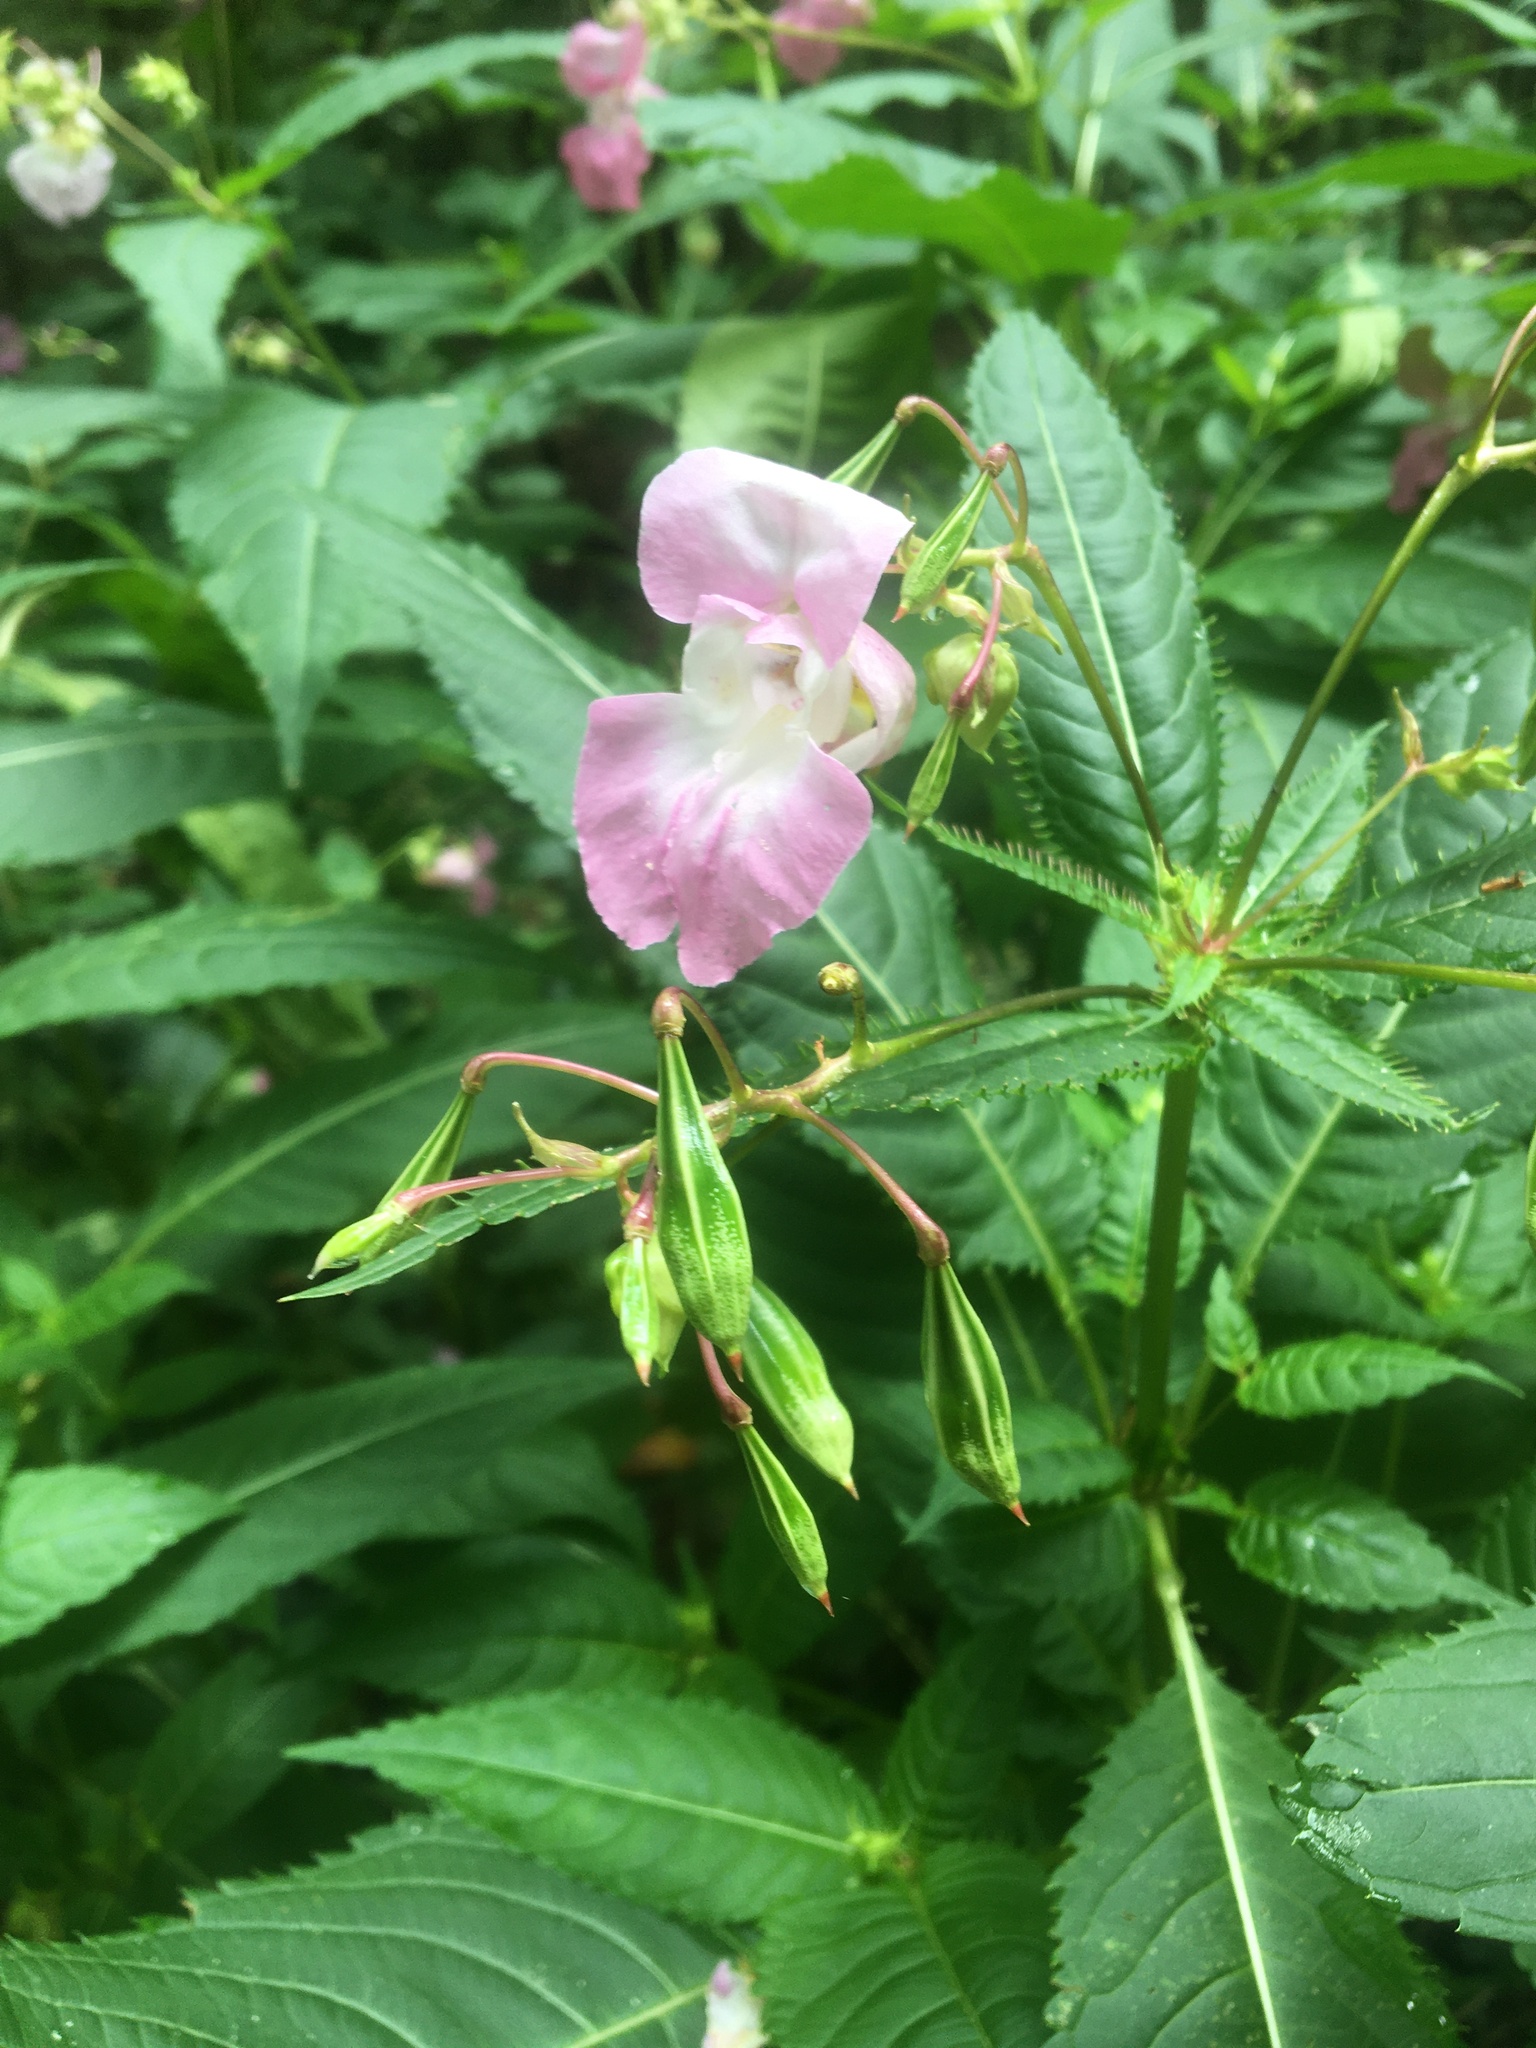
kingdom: Plantae
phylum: Tracheophyta
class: Magnoliopsida
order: Ericales
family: Balsaminaceae
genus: Impatiens
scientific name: Impatiens glandulifera
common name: Himalayan balsam
